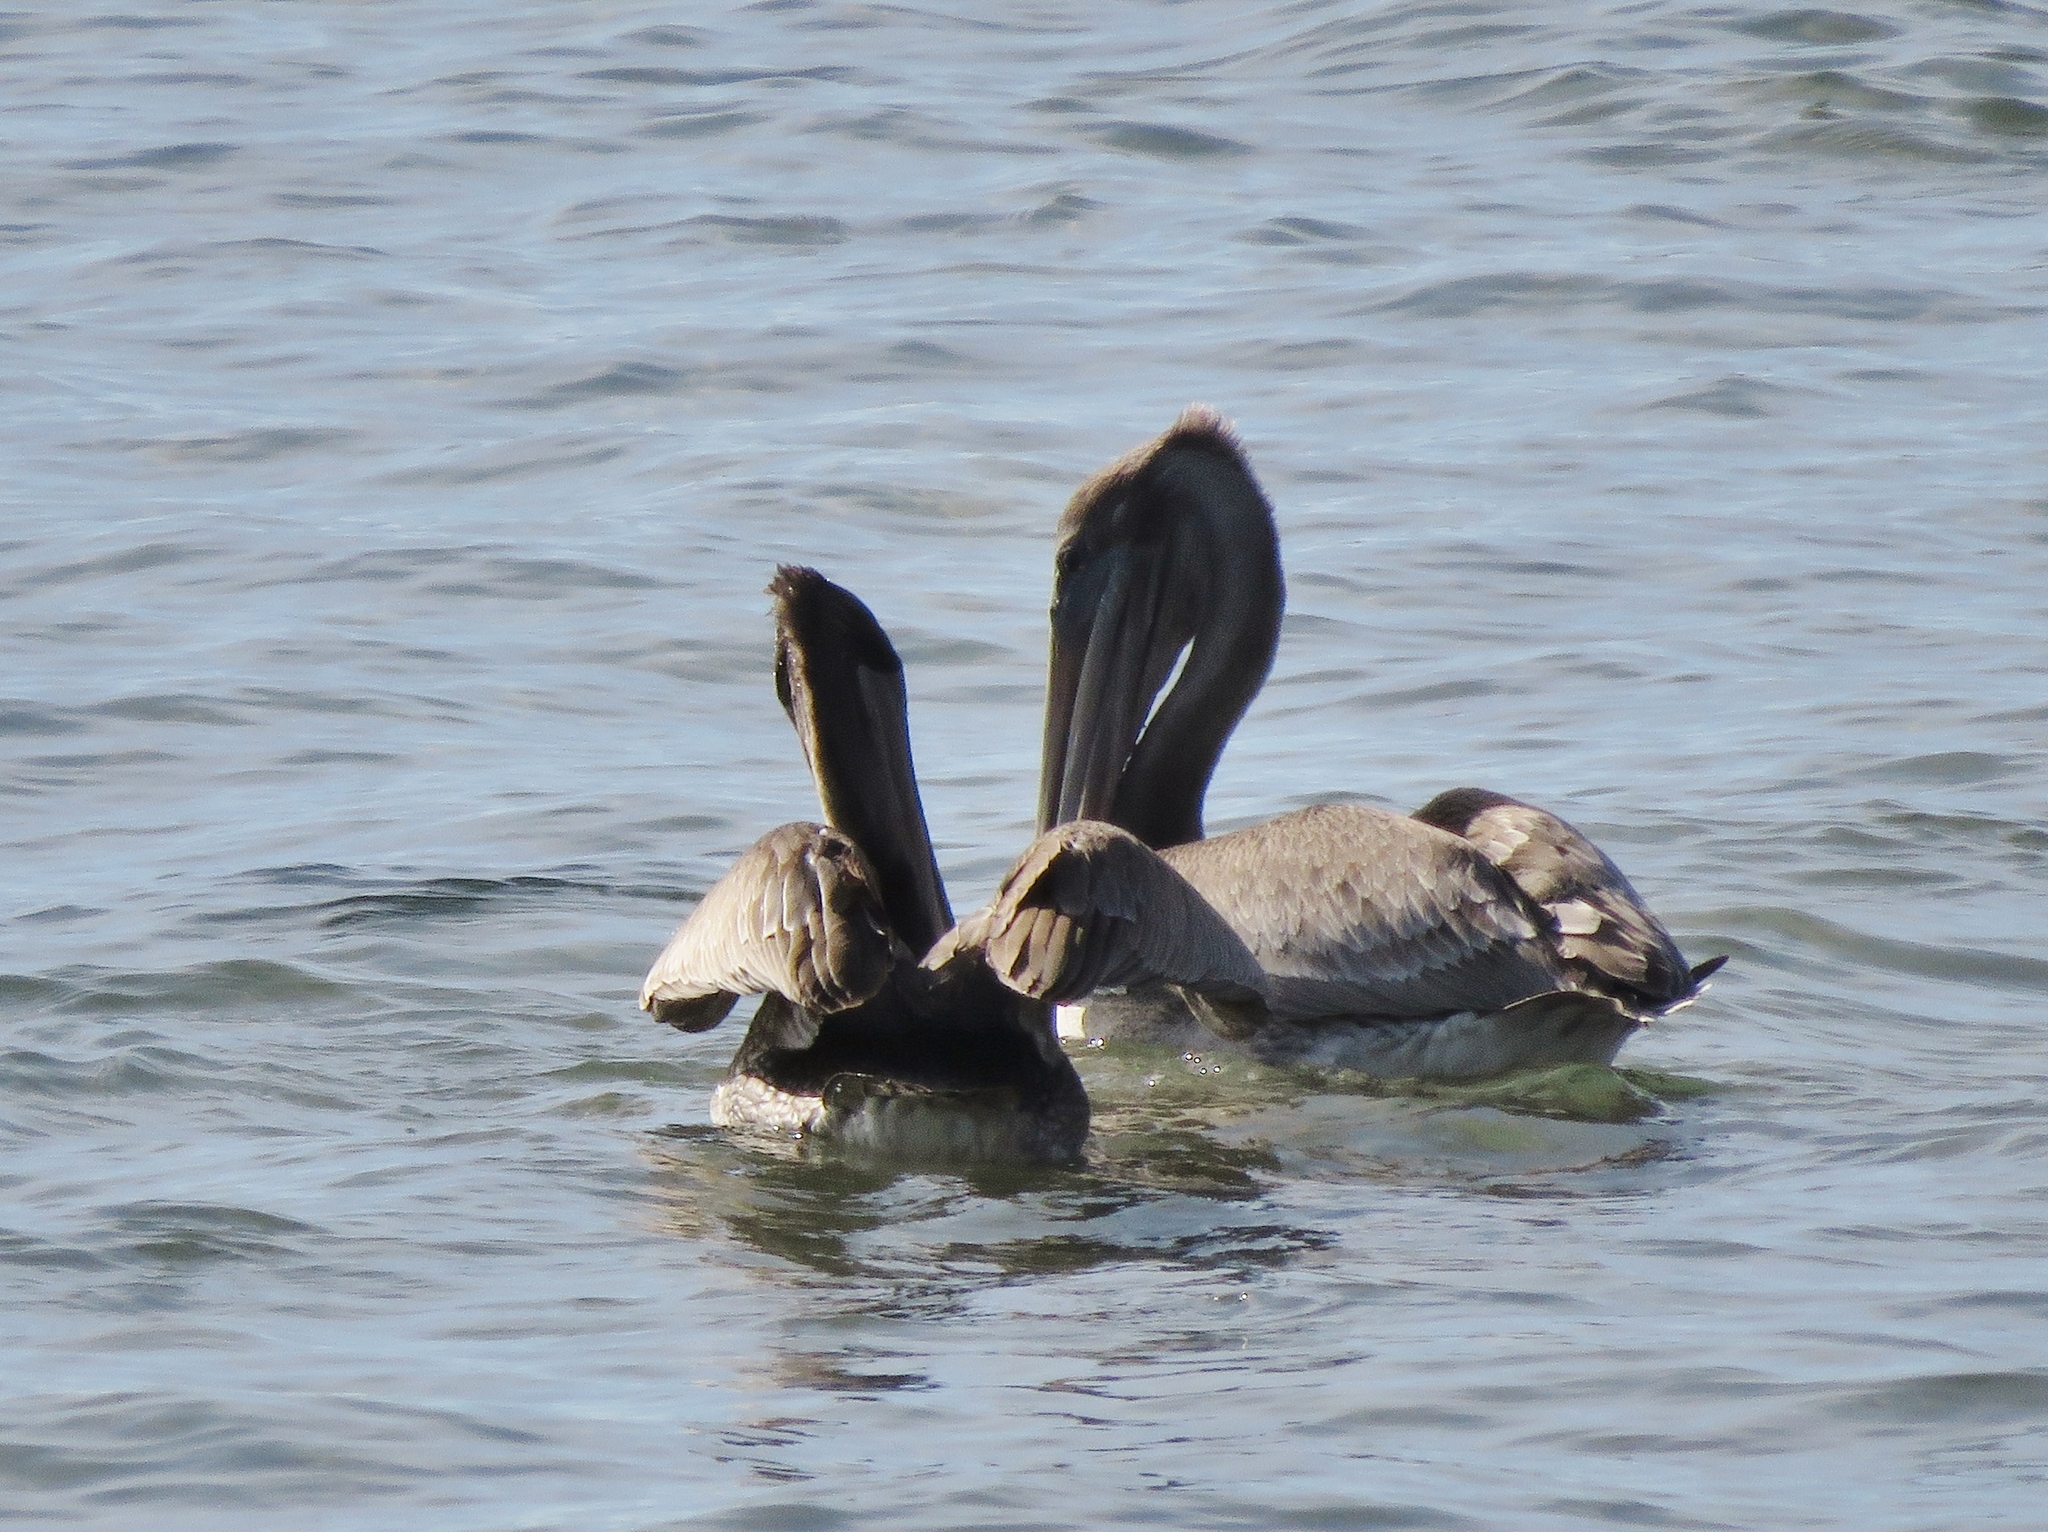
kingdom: Animalia
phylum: Chordata
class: Aves
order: Pelecaniformes
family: Pelecanidae
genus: Pelecanus
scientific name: Pelecanus occidentalis
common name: Brown pelican
